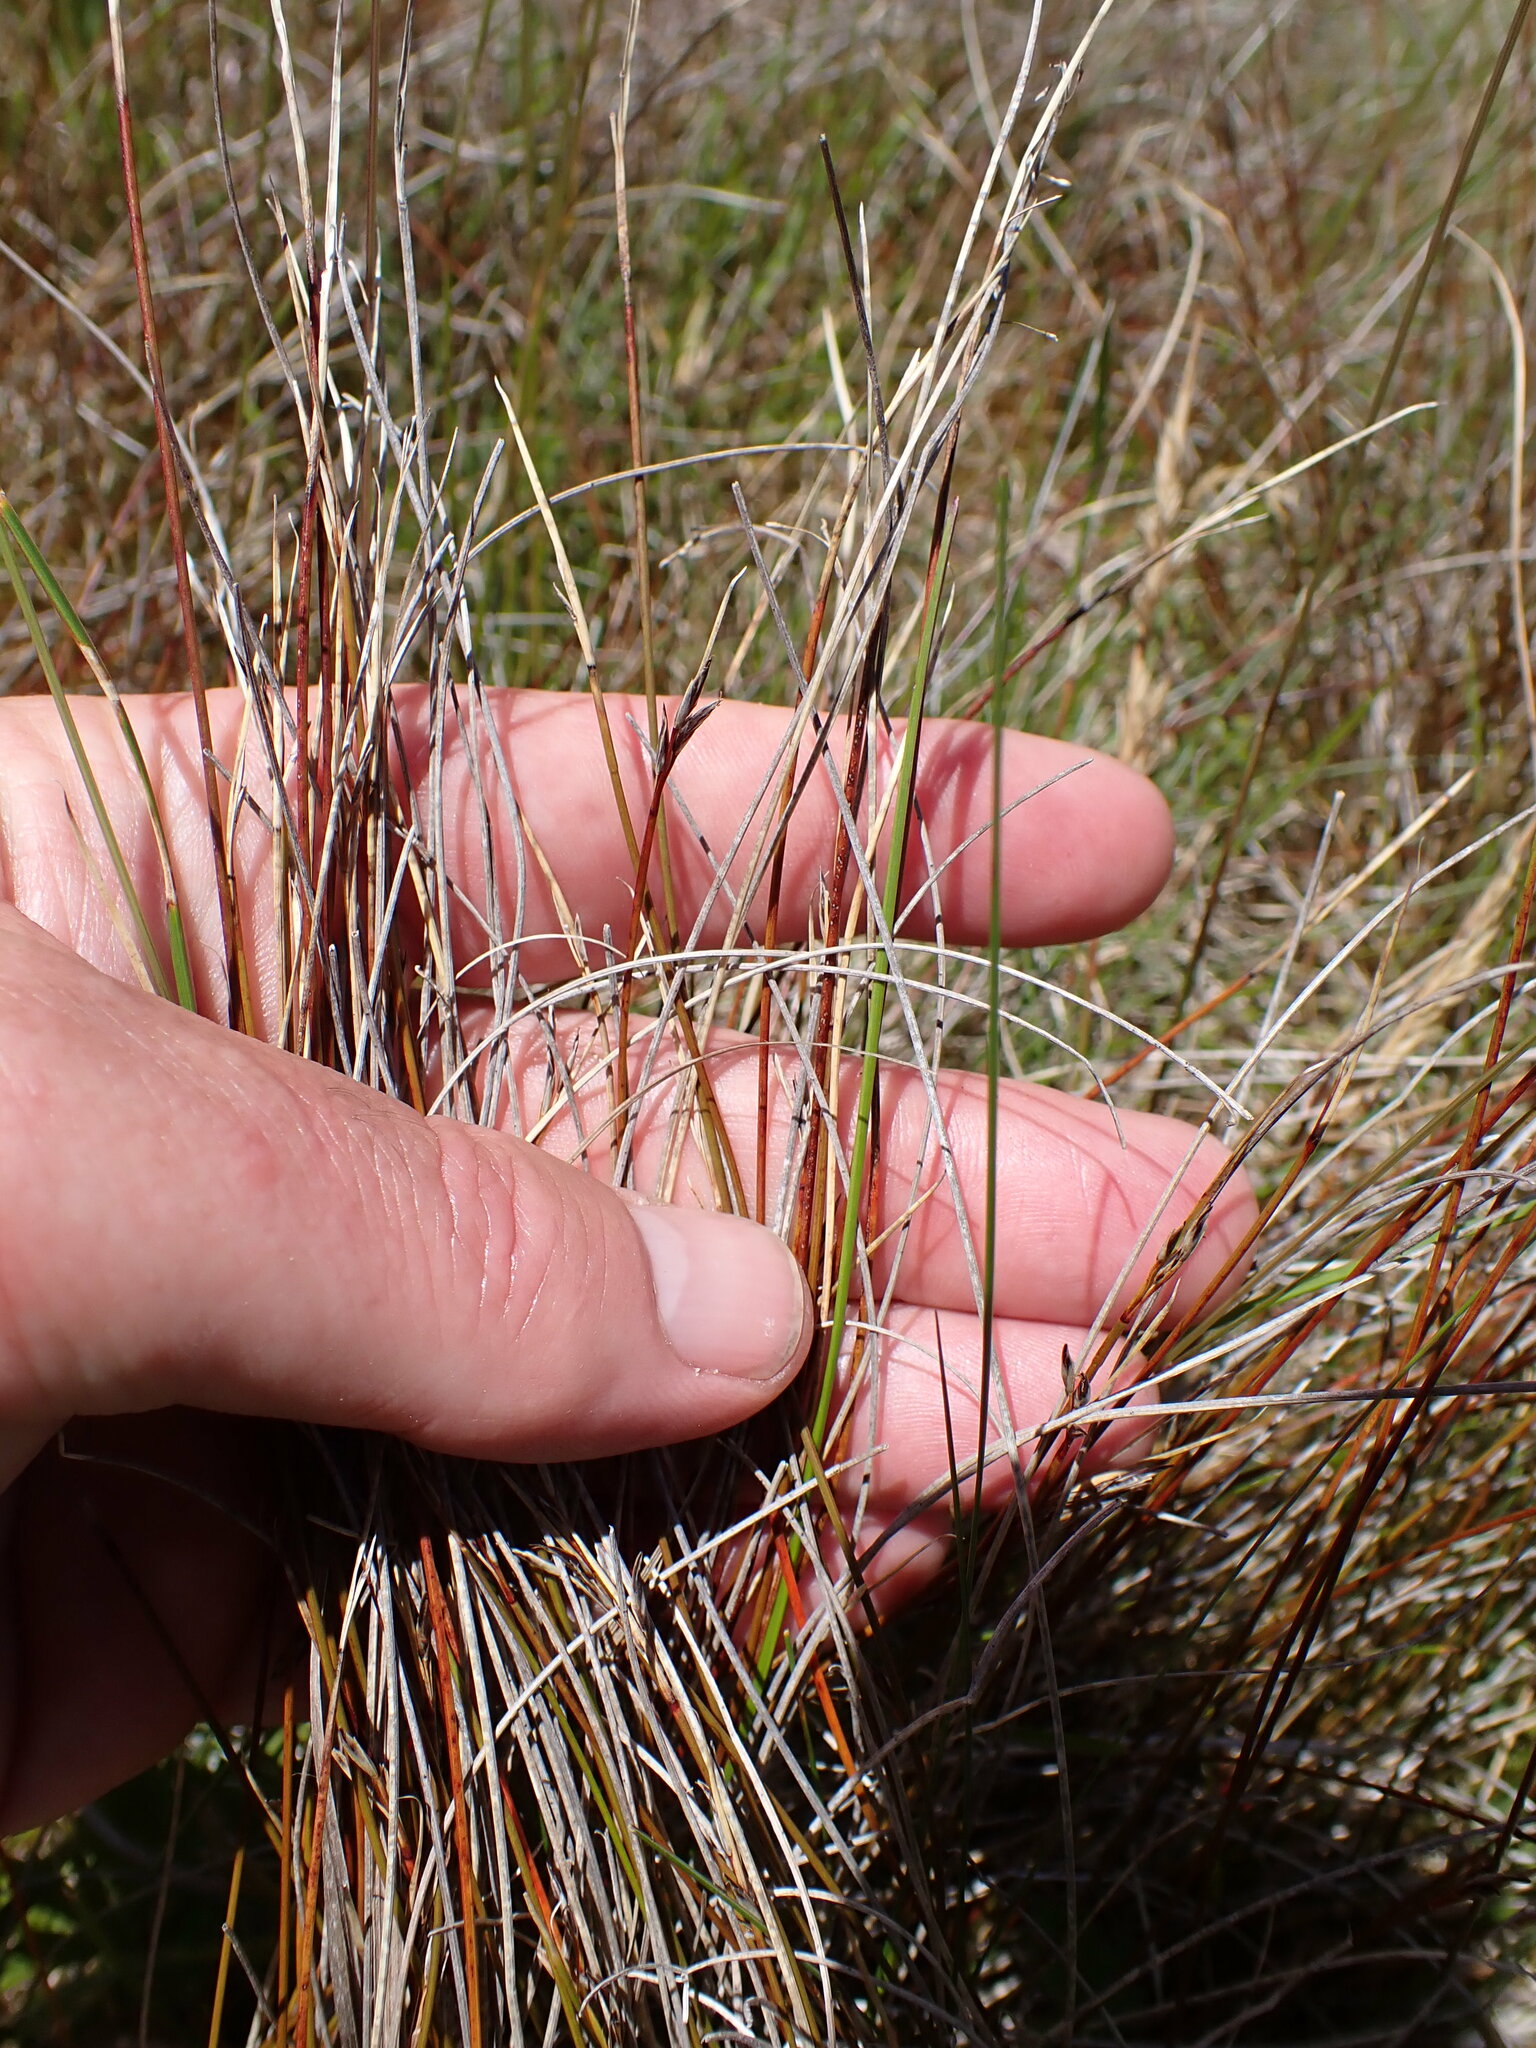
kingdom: Plantae
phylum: Tracheophyta
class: Liliopsida
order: Poales
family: Cyperaceae
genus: Schoenus
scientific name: Schoenus pauciflorus
